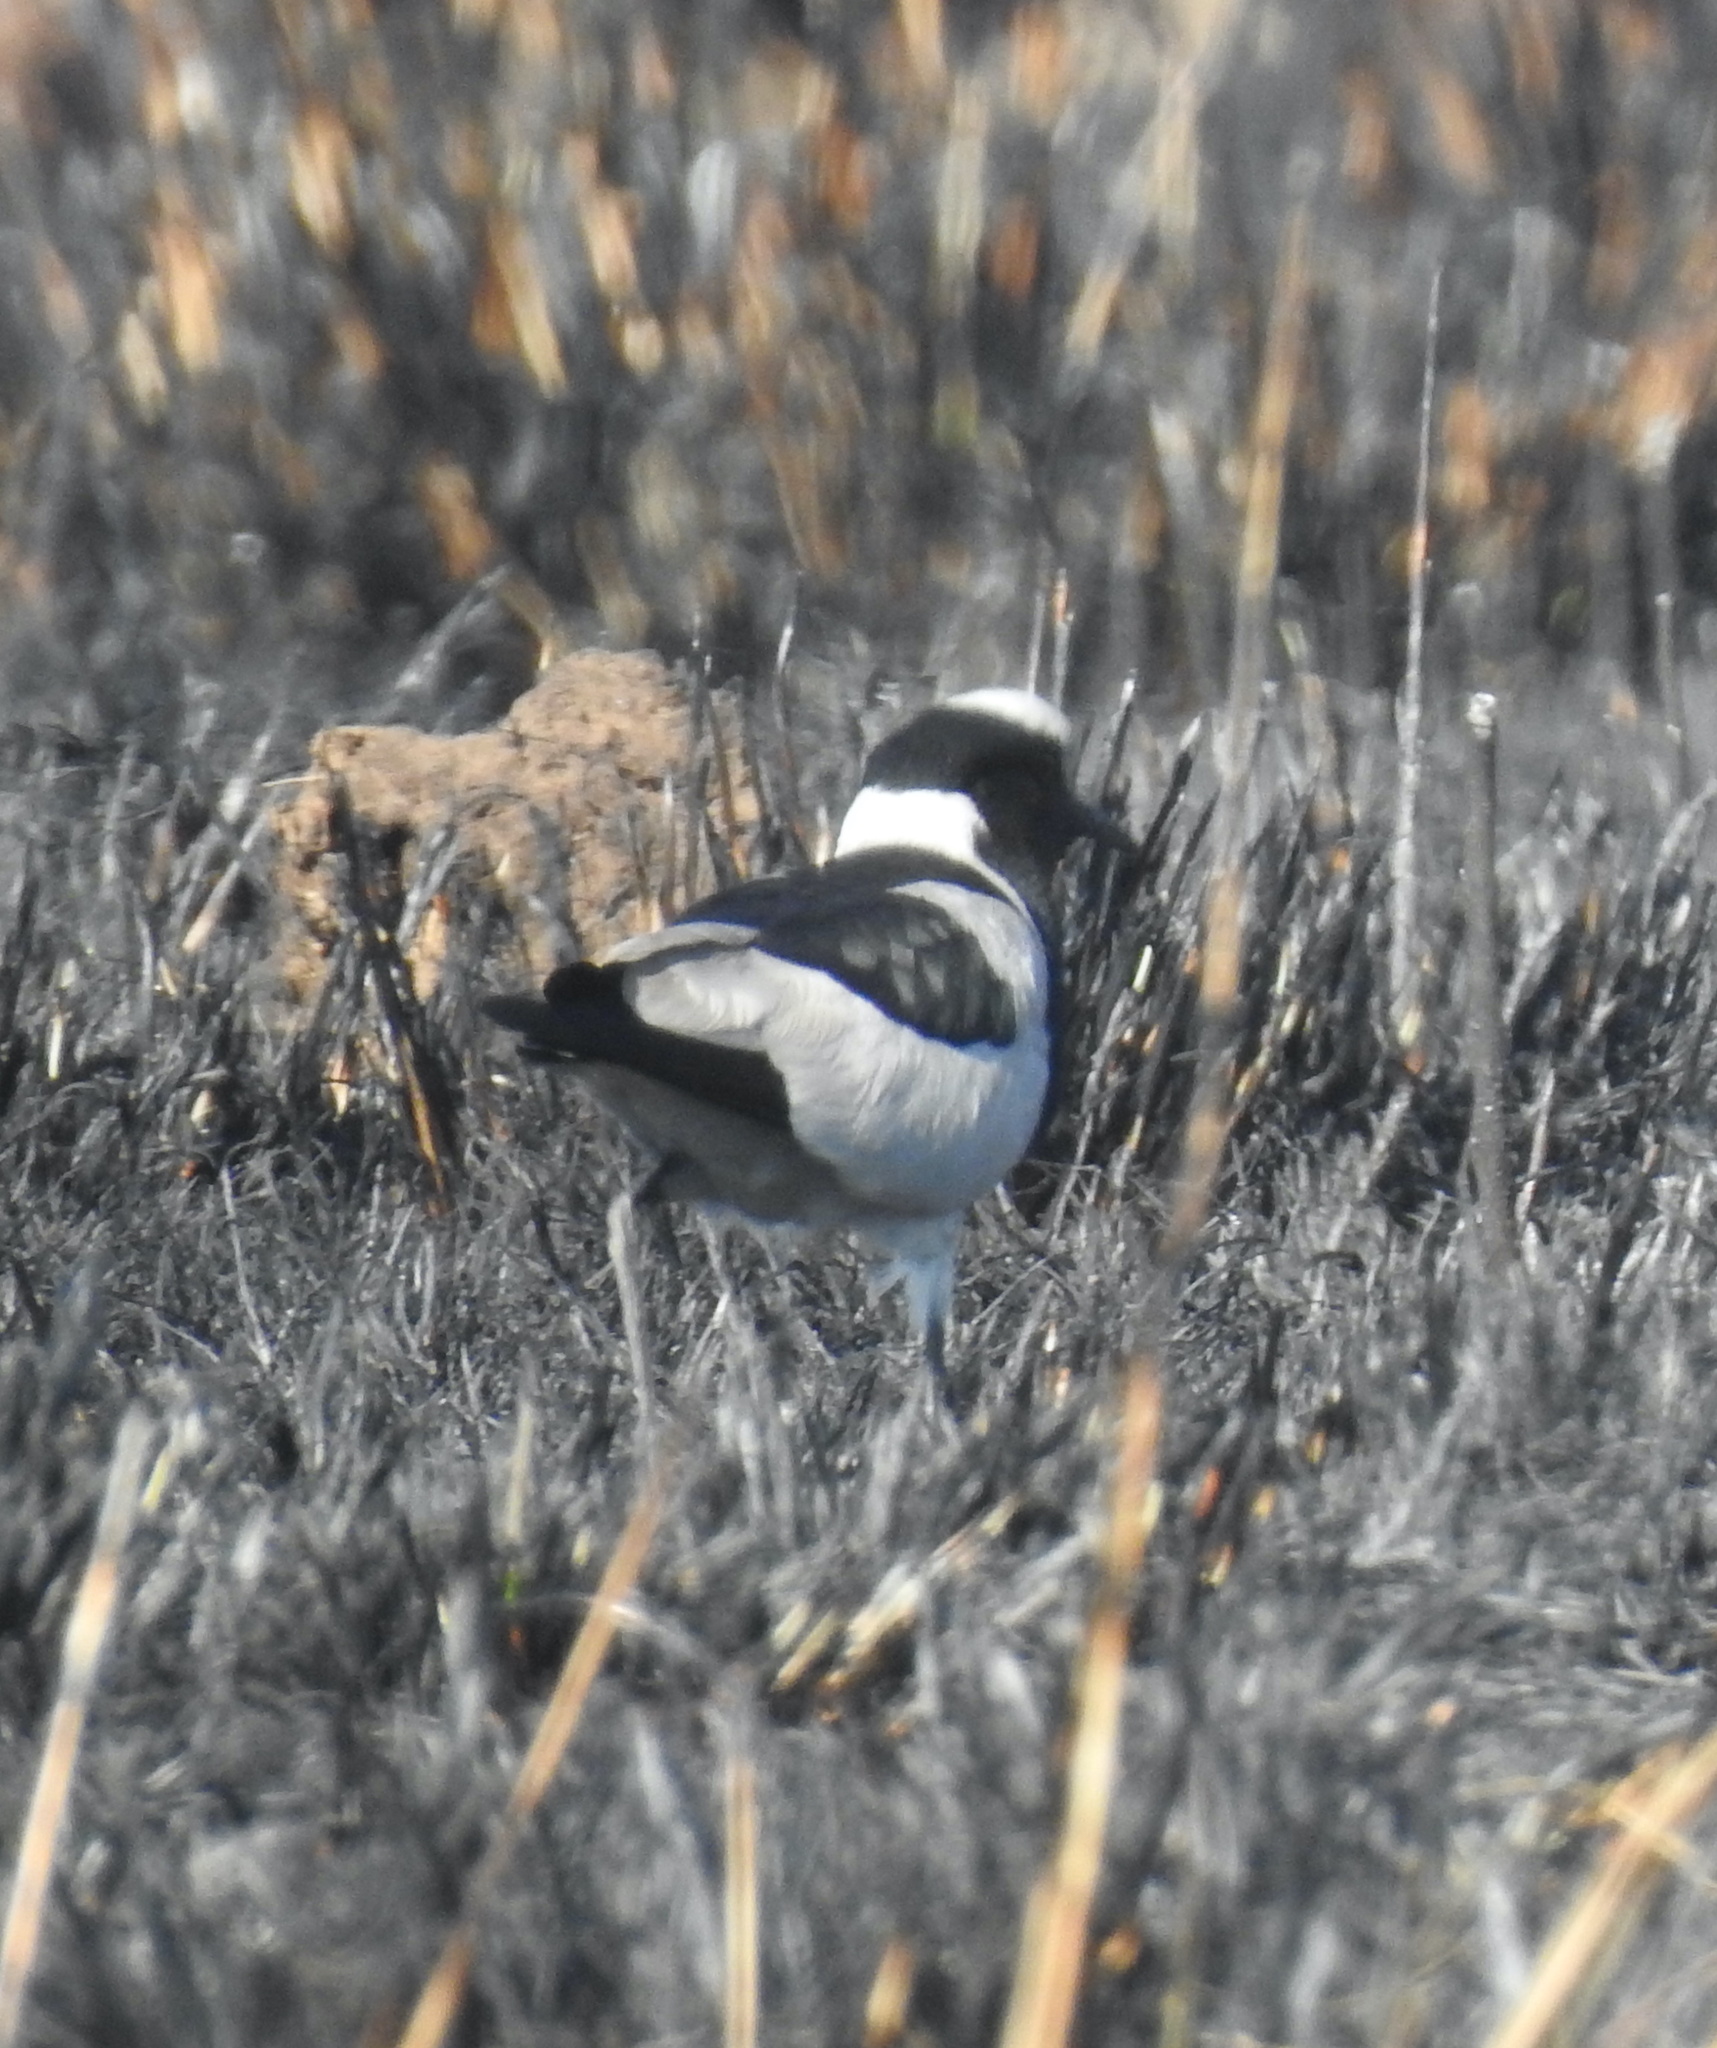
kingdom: Animalia
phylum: Chordata
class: Aves
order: Charadriiformes
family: Charadriidae
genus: Vanellus
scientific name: Vanellus armatus
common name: Blacksmith lapwing
